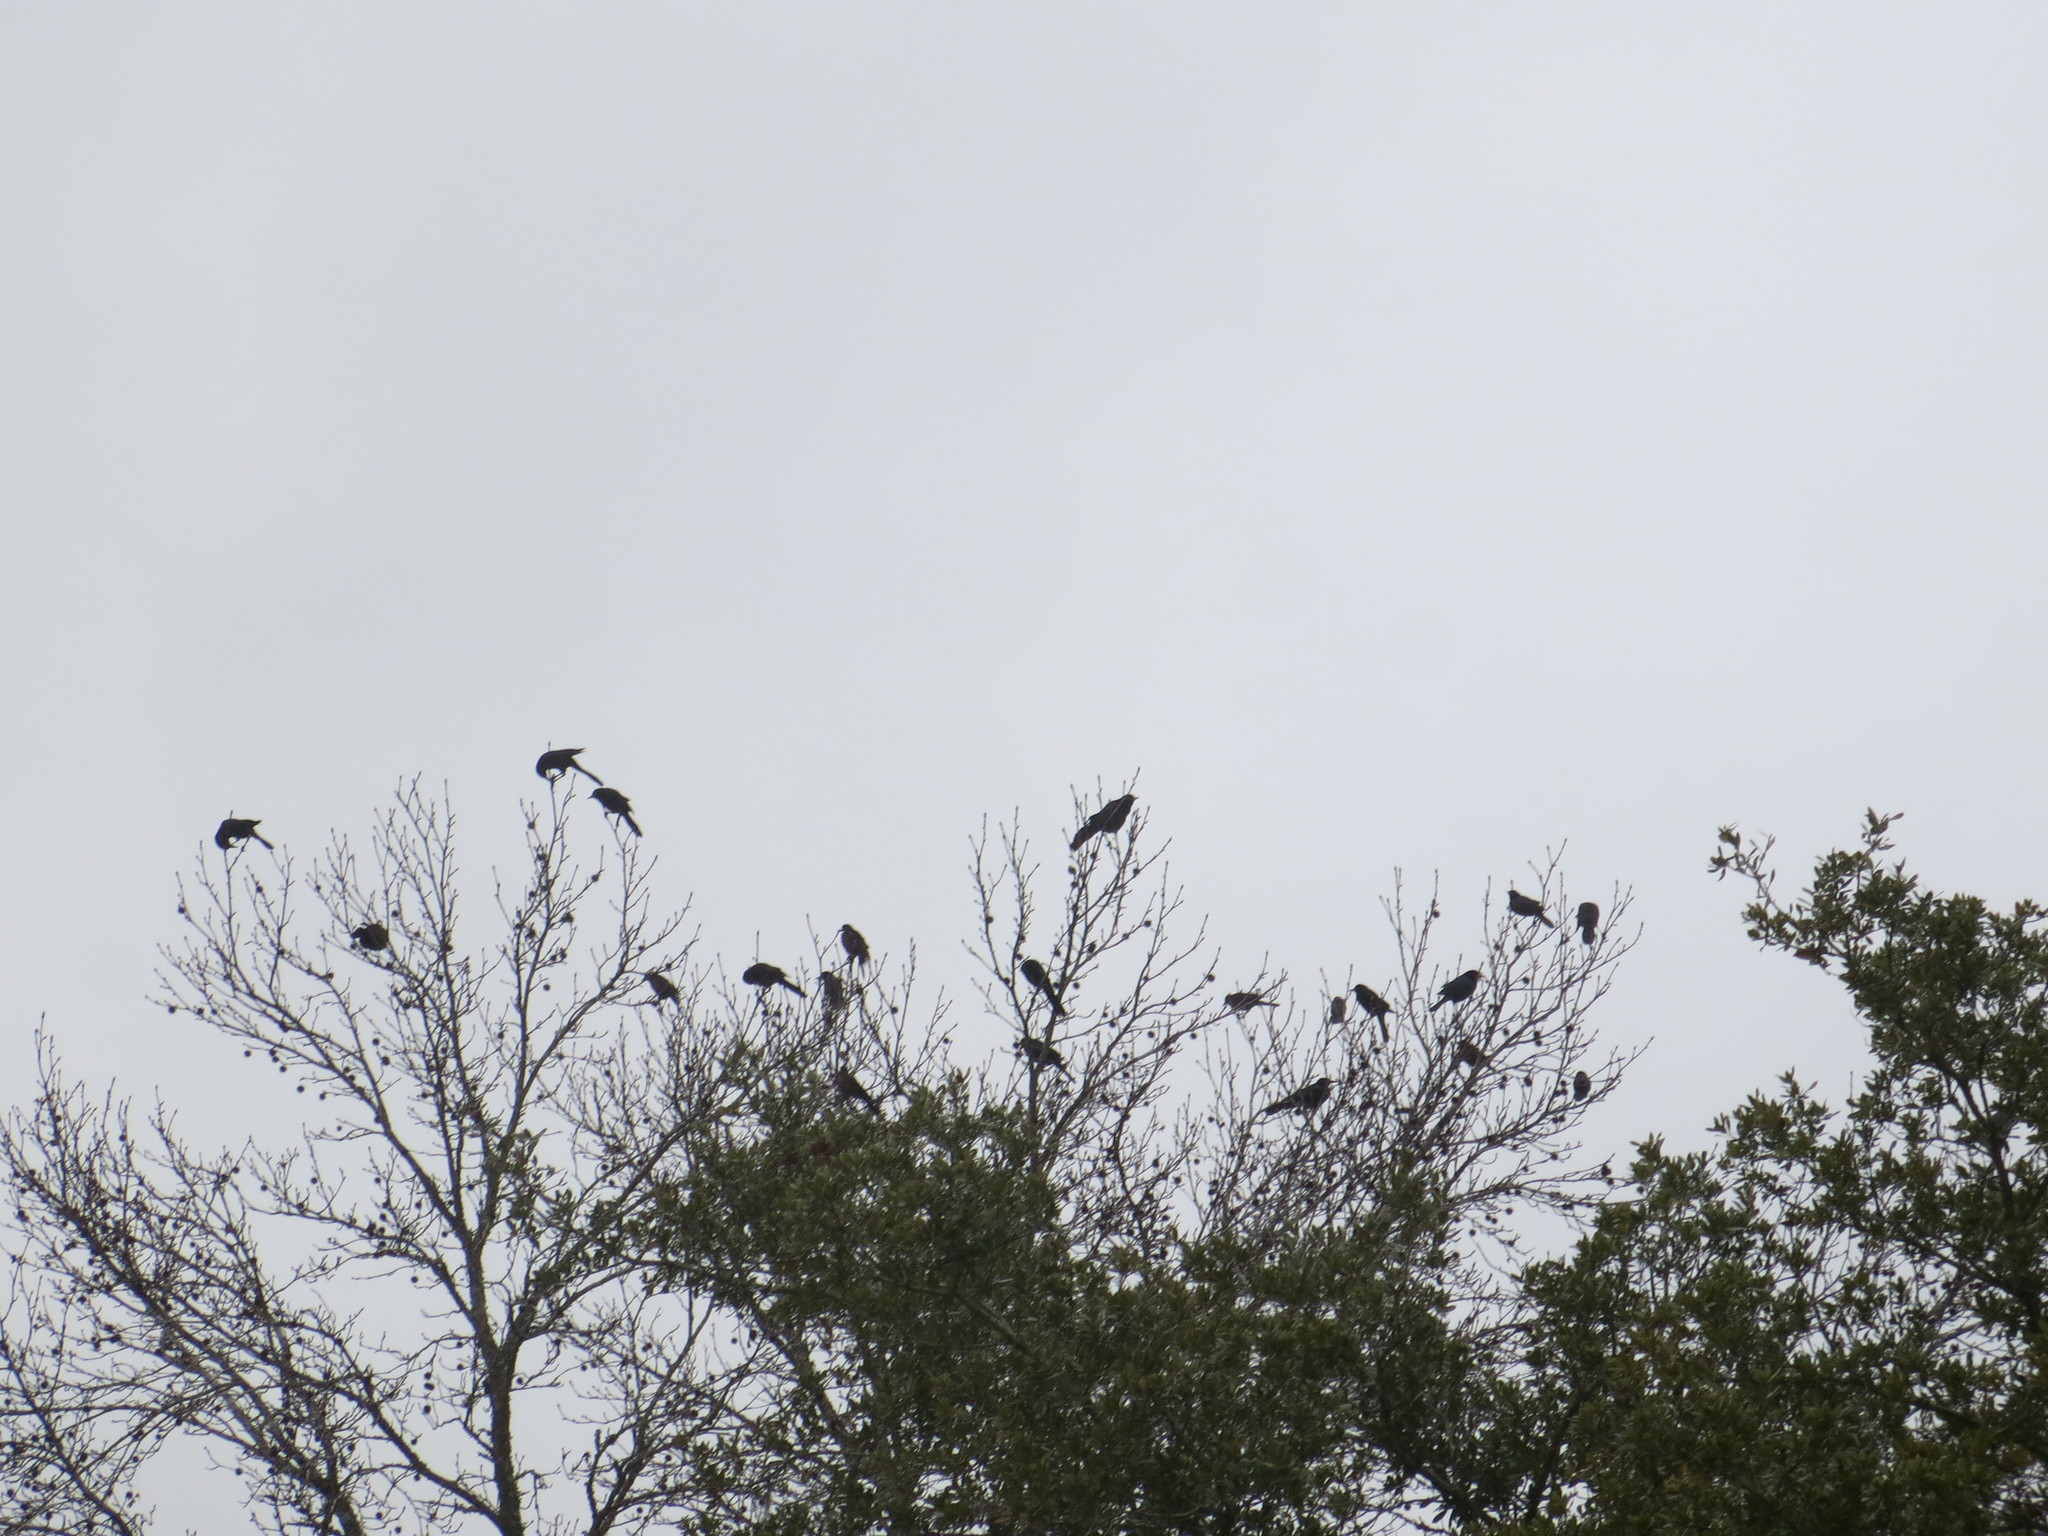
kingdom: Animalia
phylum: Chordata
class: Aves
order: Passeriformes
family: Icteridae
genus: Quiscalus
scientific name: Quiscalus major
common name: Boat-tailed grackle
